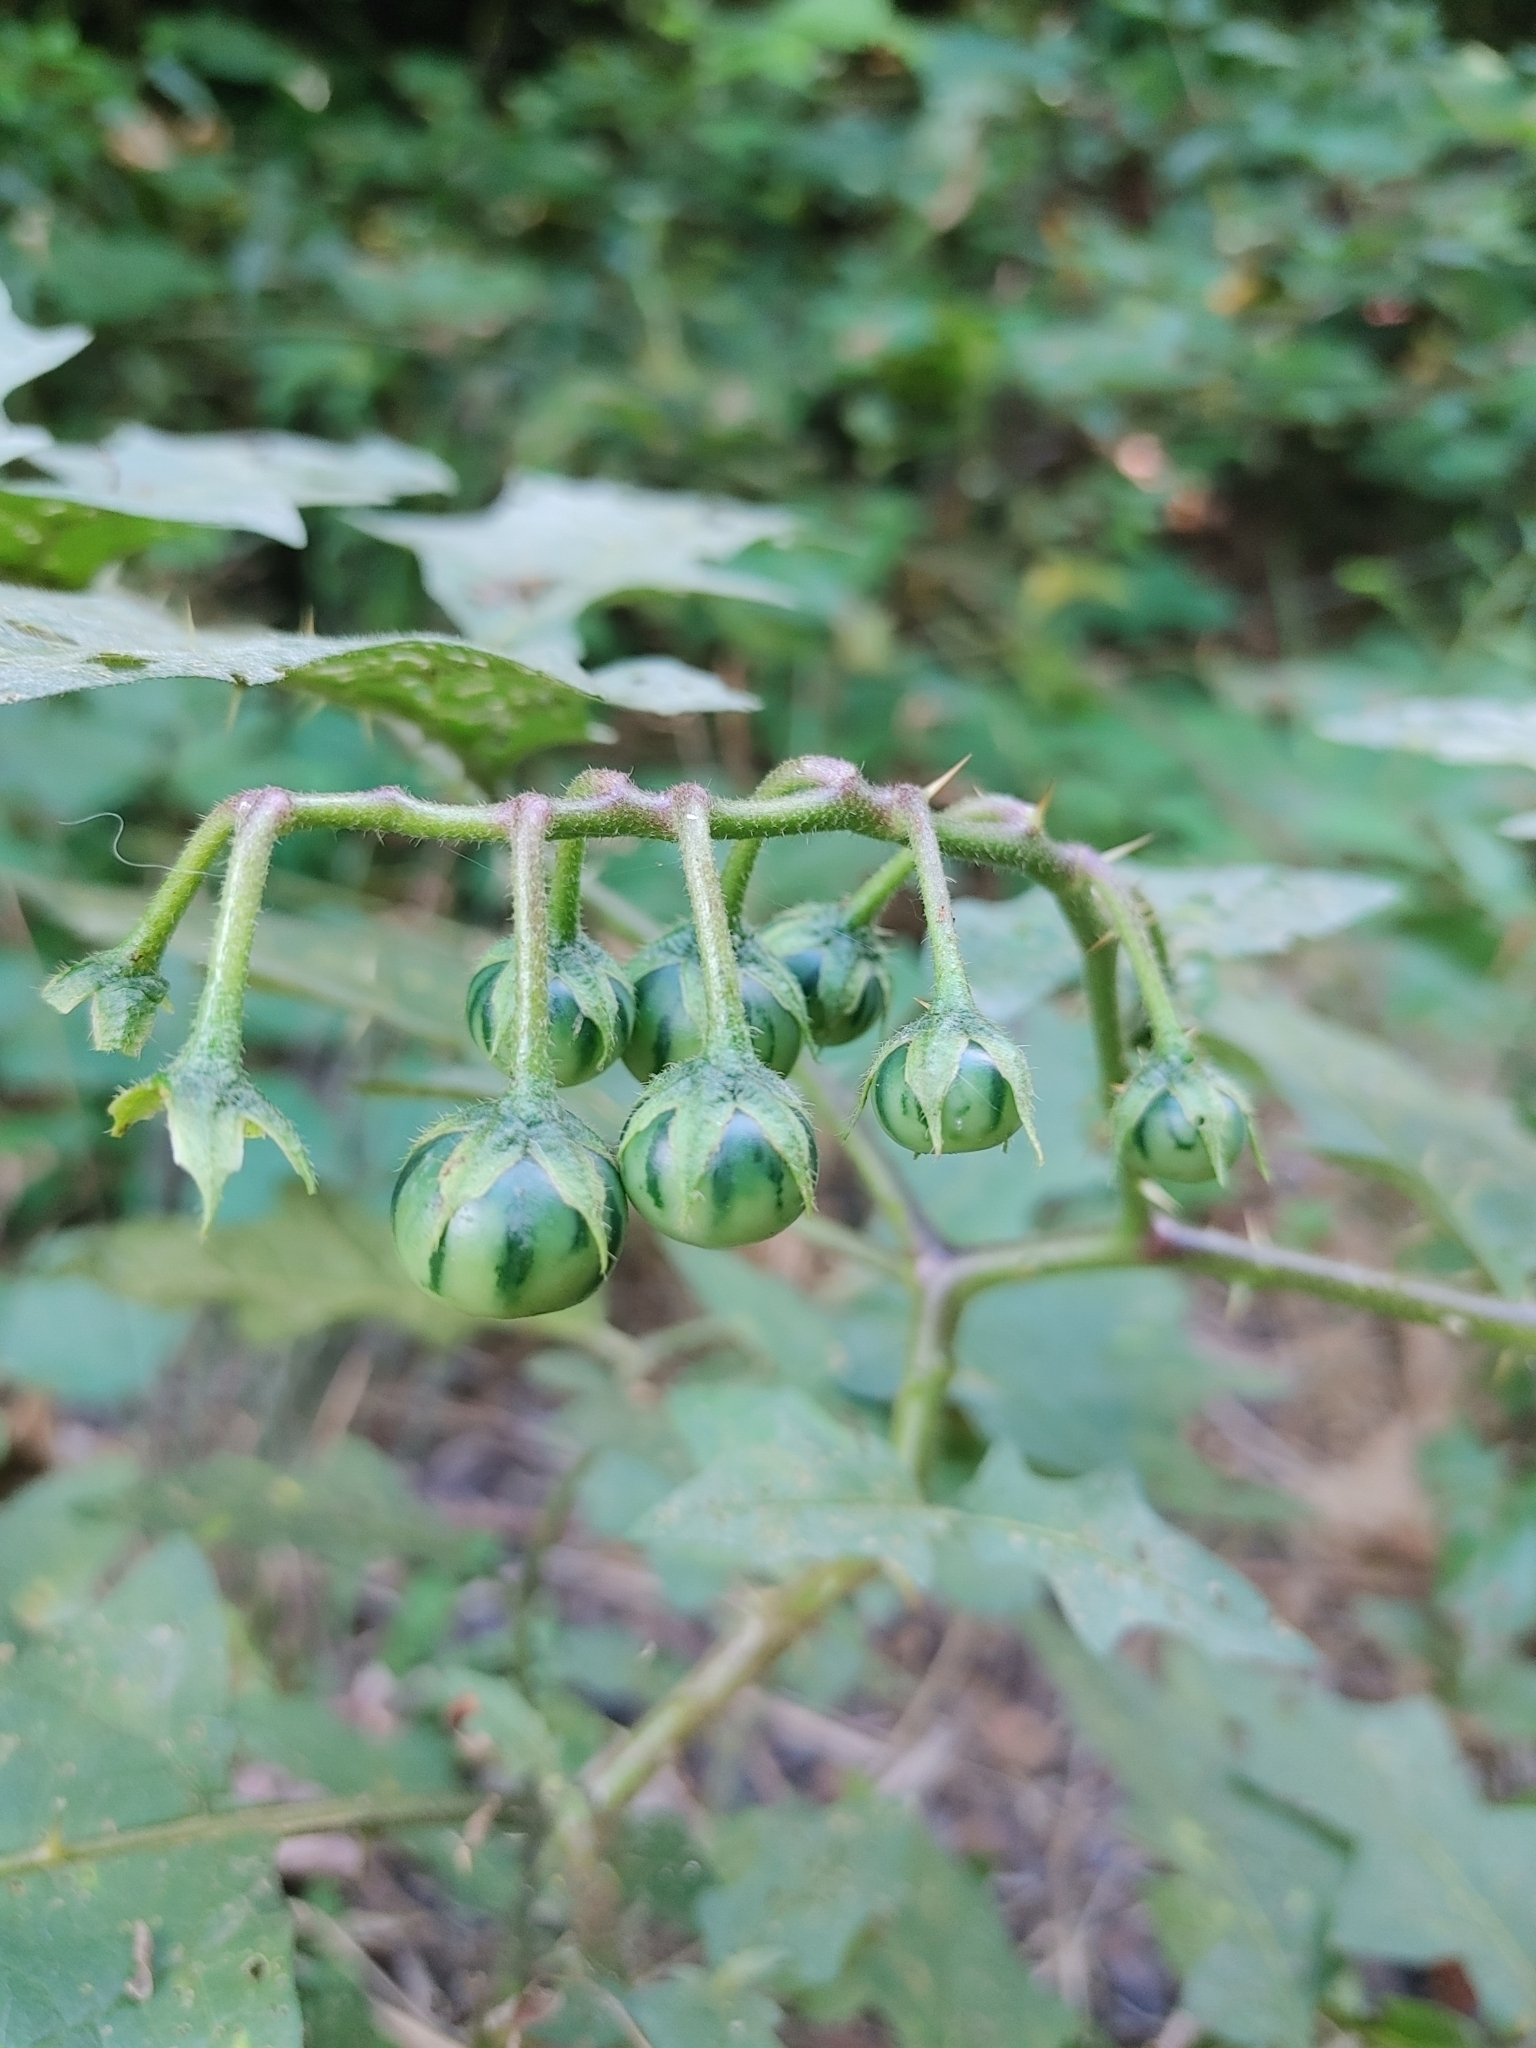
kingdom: Plantae
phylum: Tracheophyta
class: Magnoliopsida
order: Solanales
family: Solanaceae
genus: Solanum
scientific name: Solanum carolinense
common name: Horse-nettle
